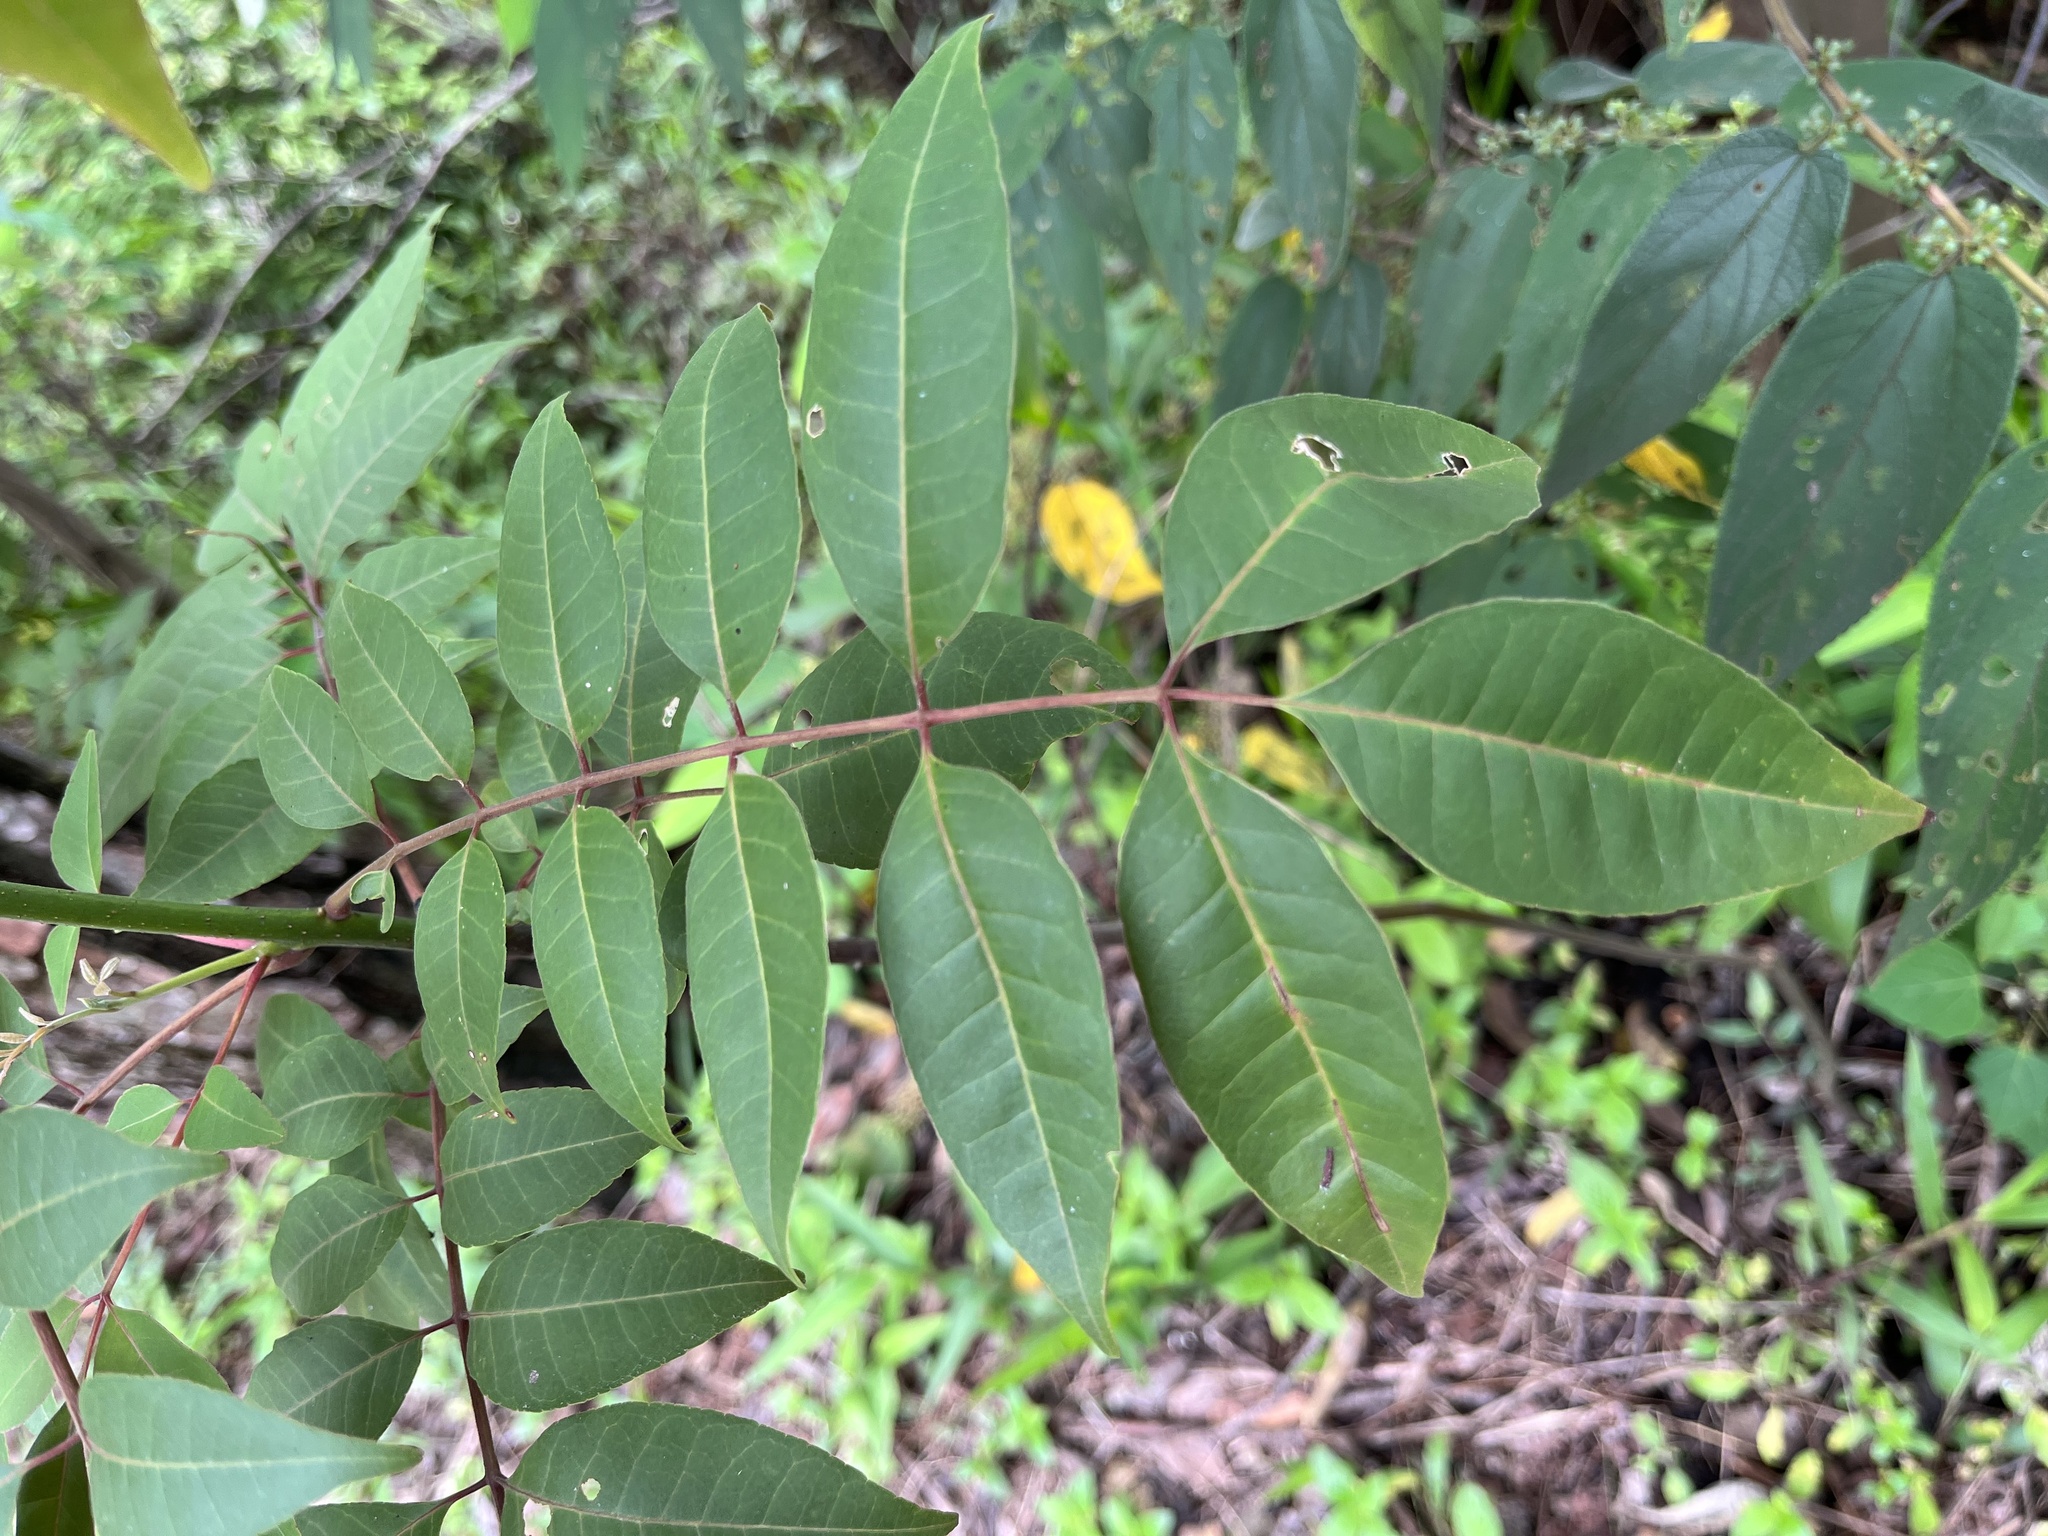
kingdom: Plantae
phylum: Tracheophyta
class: Magnoliopsida
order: Sapindales
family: Rutaceae
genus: Tetradium
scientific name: Tetradium glabrifolium
